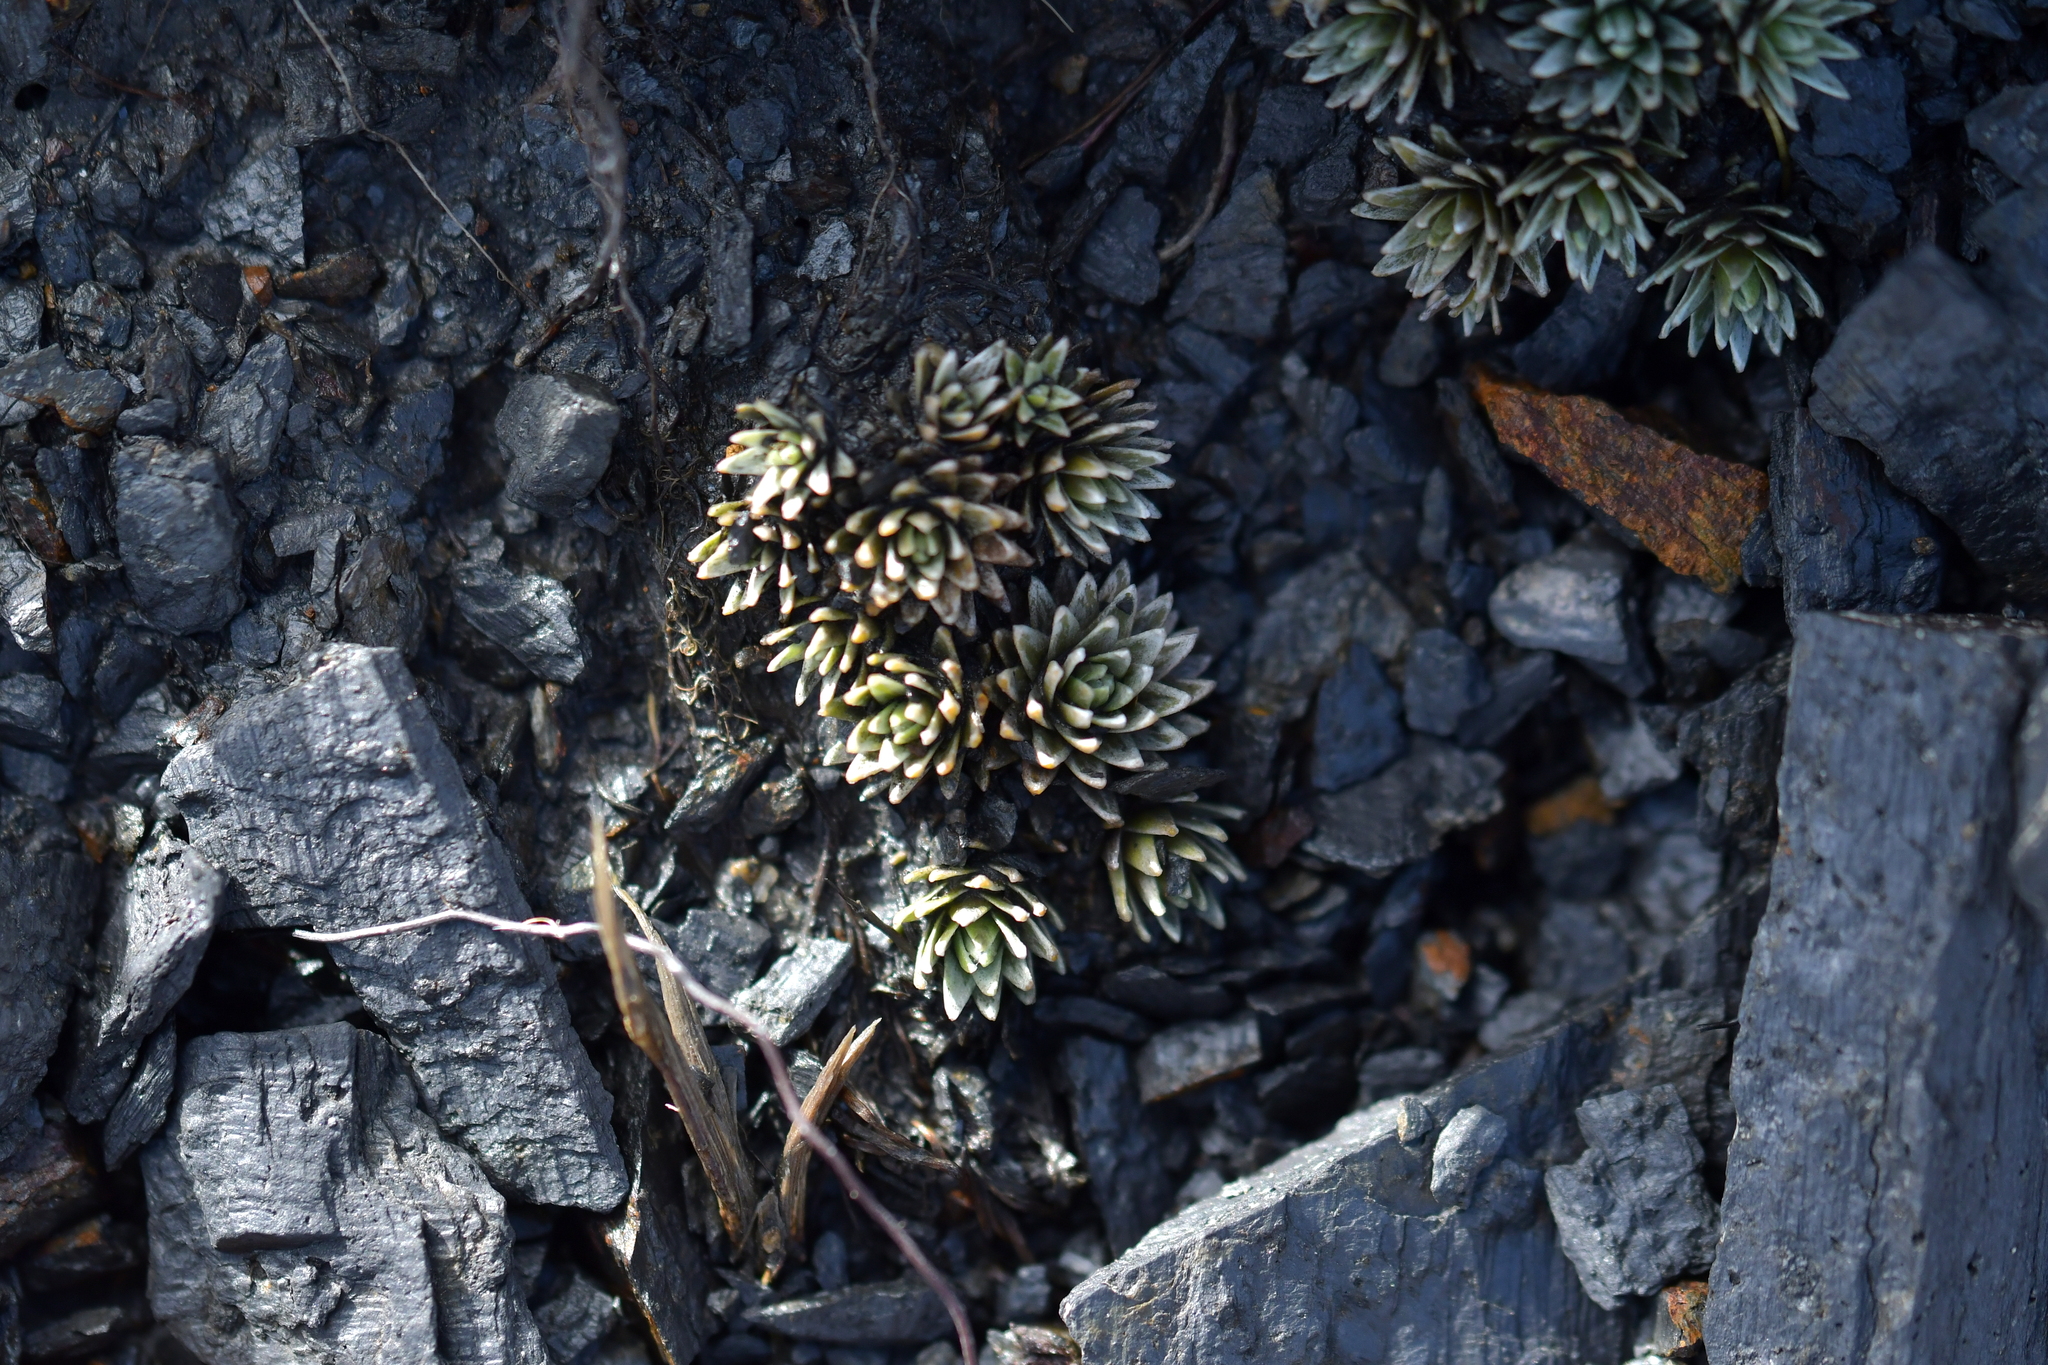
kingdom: Plantae
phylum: Tracheophyta
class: Magnoliopsida
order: Asterales
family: Asteraceae
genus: Raoulia
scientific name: Raoulia grandiflora
